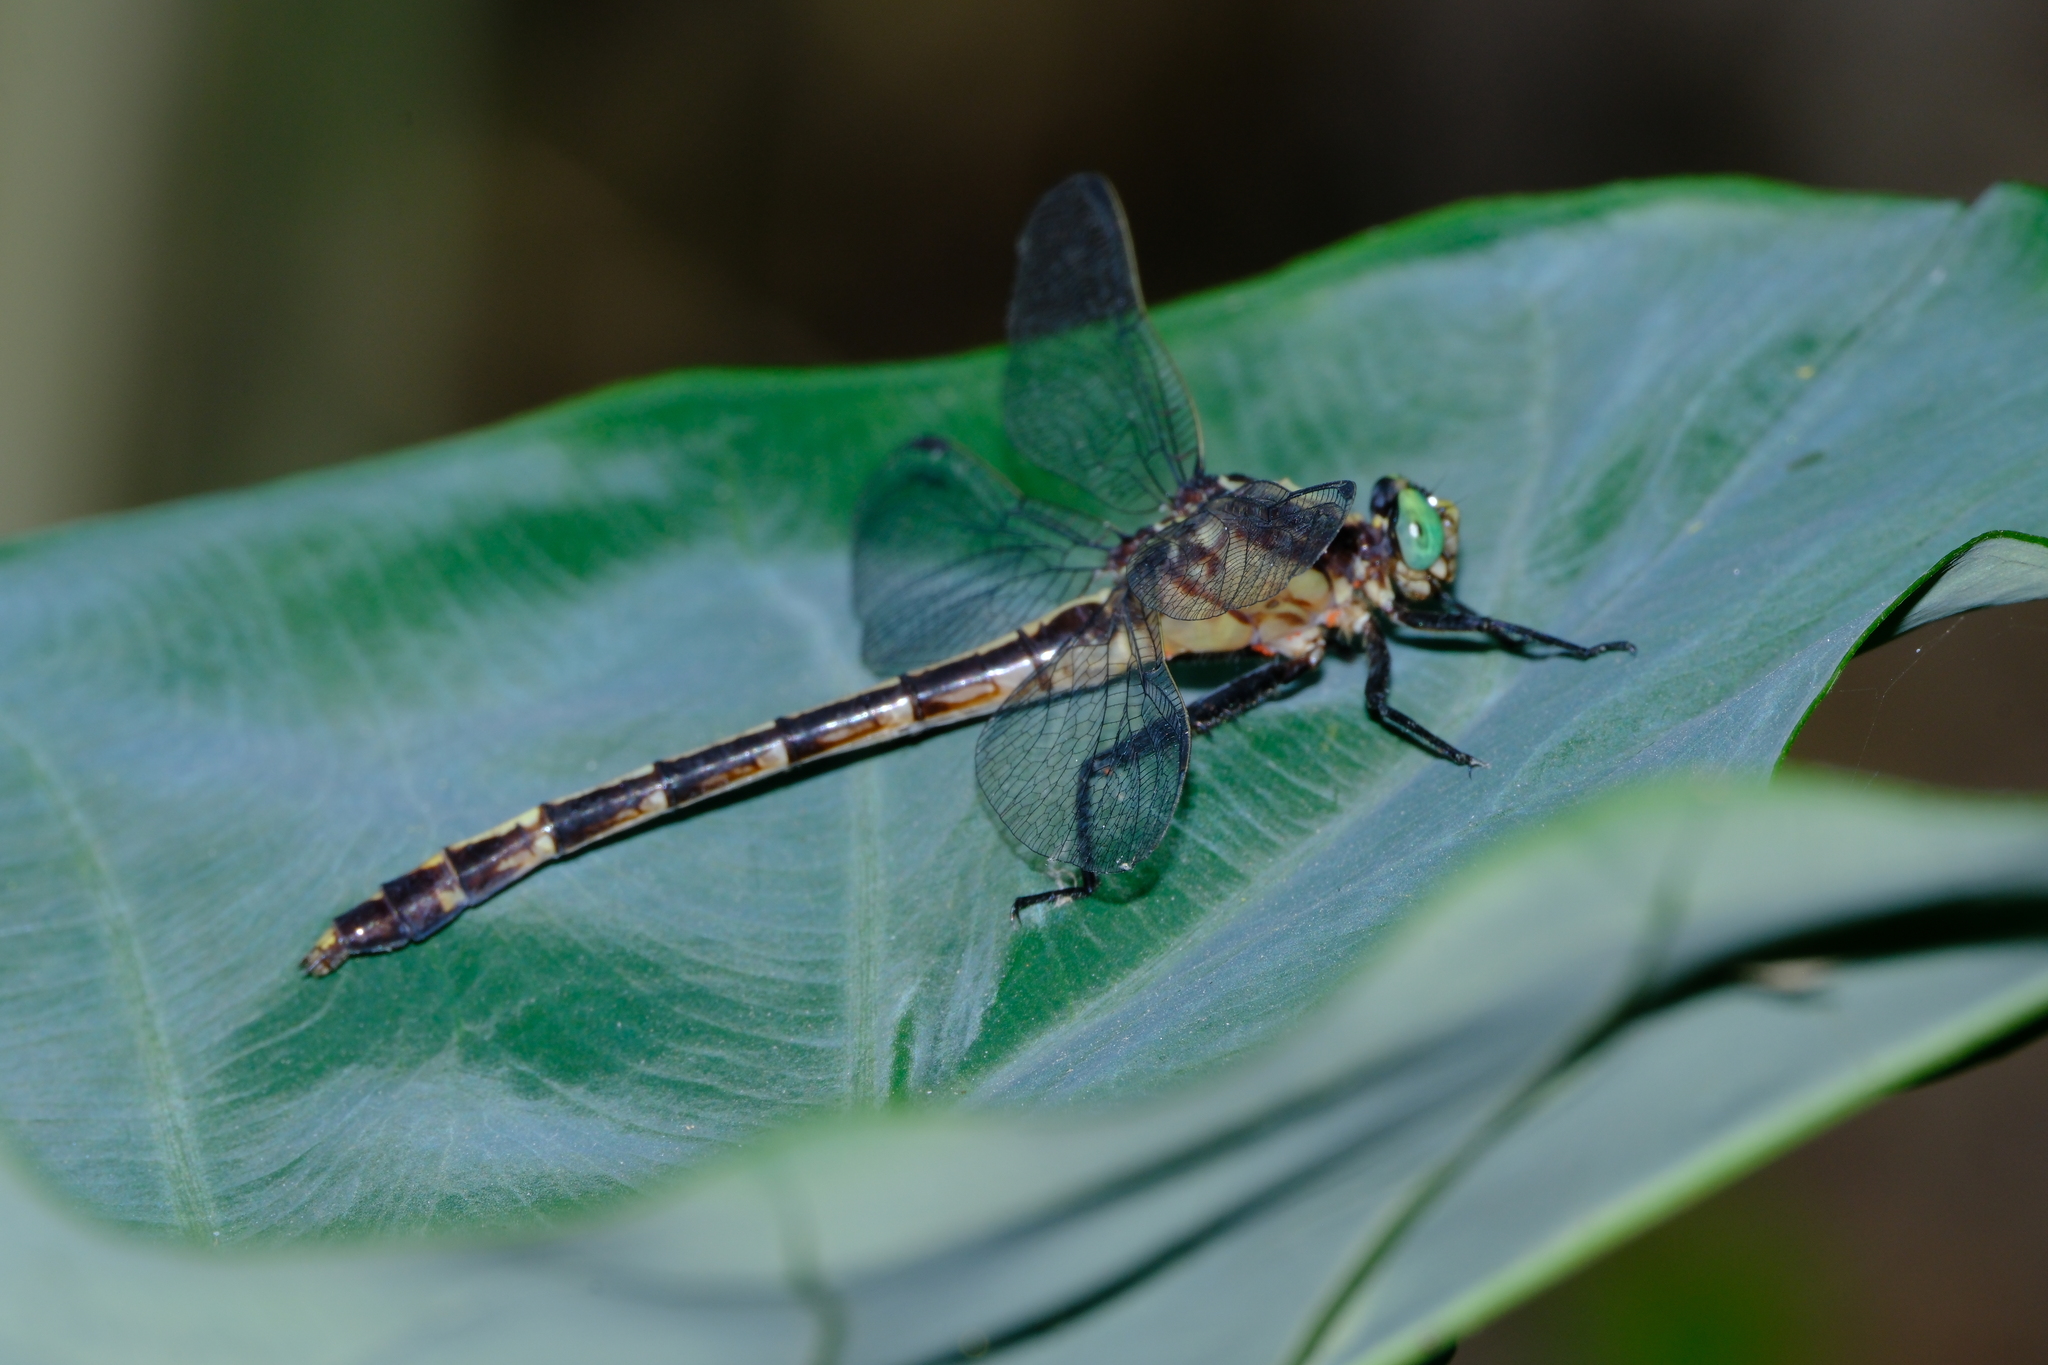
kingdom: Animalia
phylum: Arthropoda
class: Insecta
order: Odonata
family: Gomphidae
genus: Dromogomphus
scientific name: Dromogomphus spinosus
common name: Black-shouldered spinyleg
